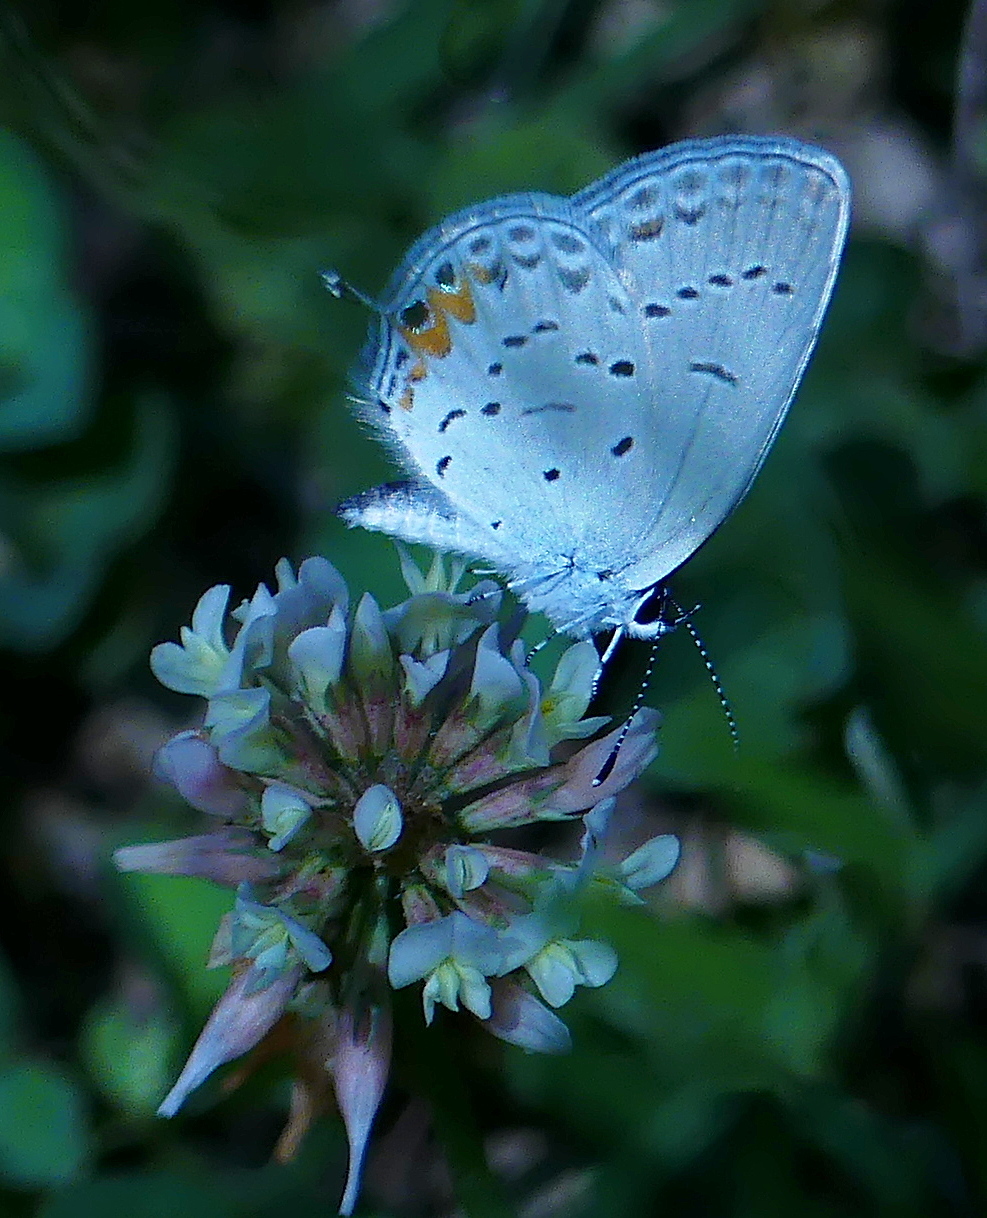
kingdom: Animalia
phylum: Arthropoda
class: Insecta
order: Lepidoptera
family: Lycaenidae
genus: Elkalyce
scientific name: Elkalyce comyntas
